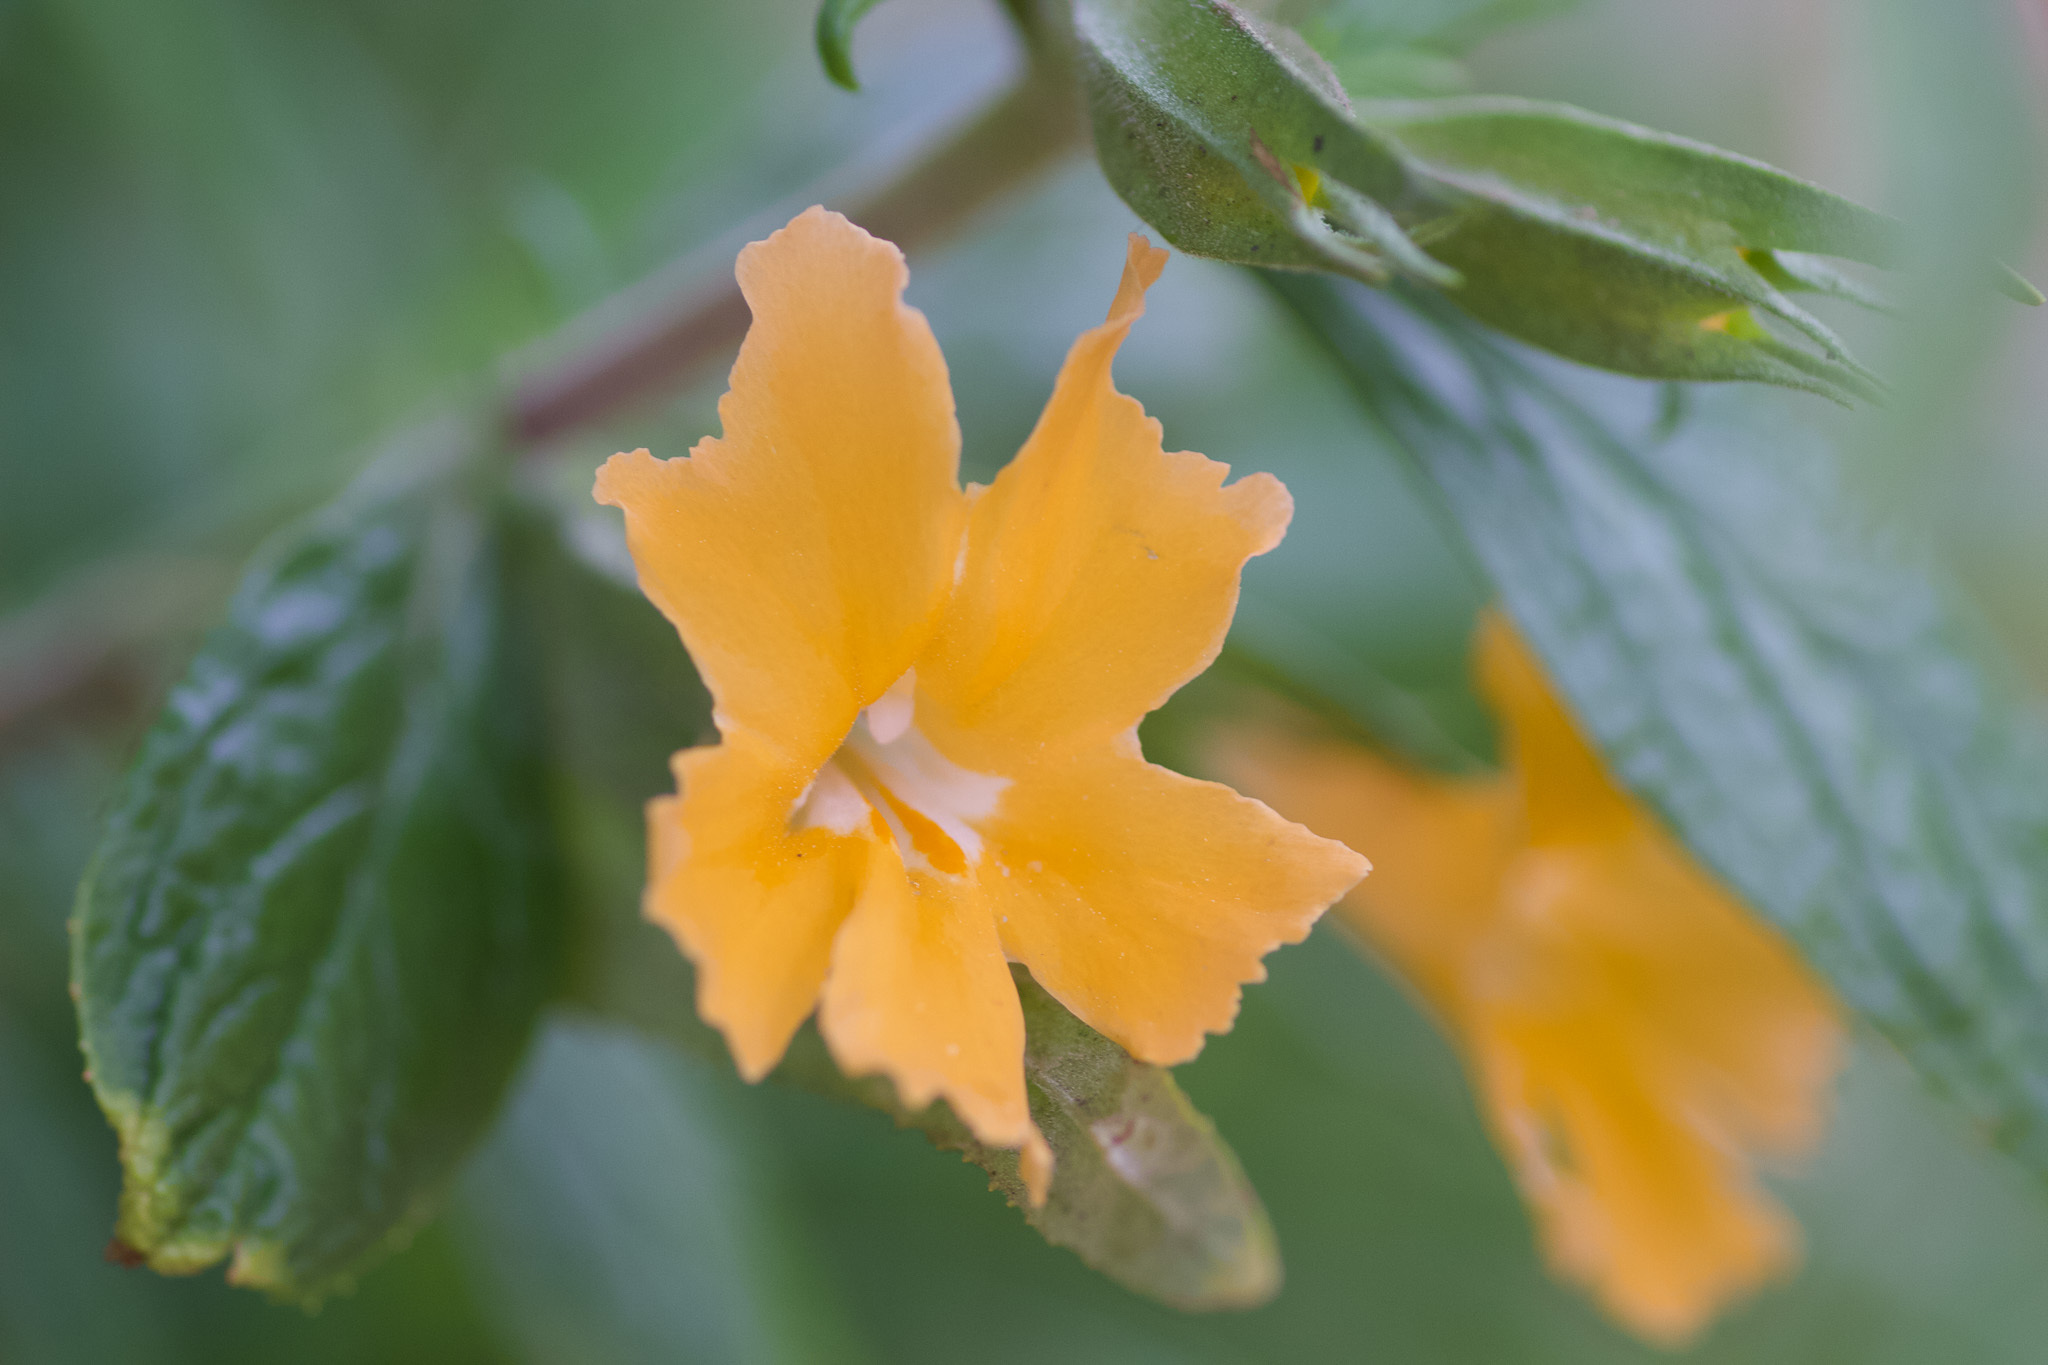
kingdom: Plantae
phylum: Tracheophyta
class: Magnoliopsida
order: Lamiales
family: Phrymaceae
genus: Diplacus
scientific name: Diplacus longiflorus
